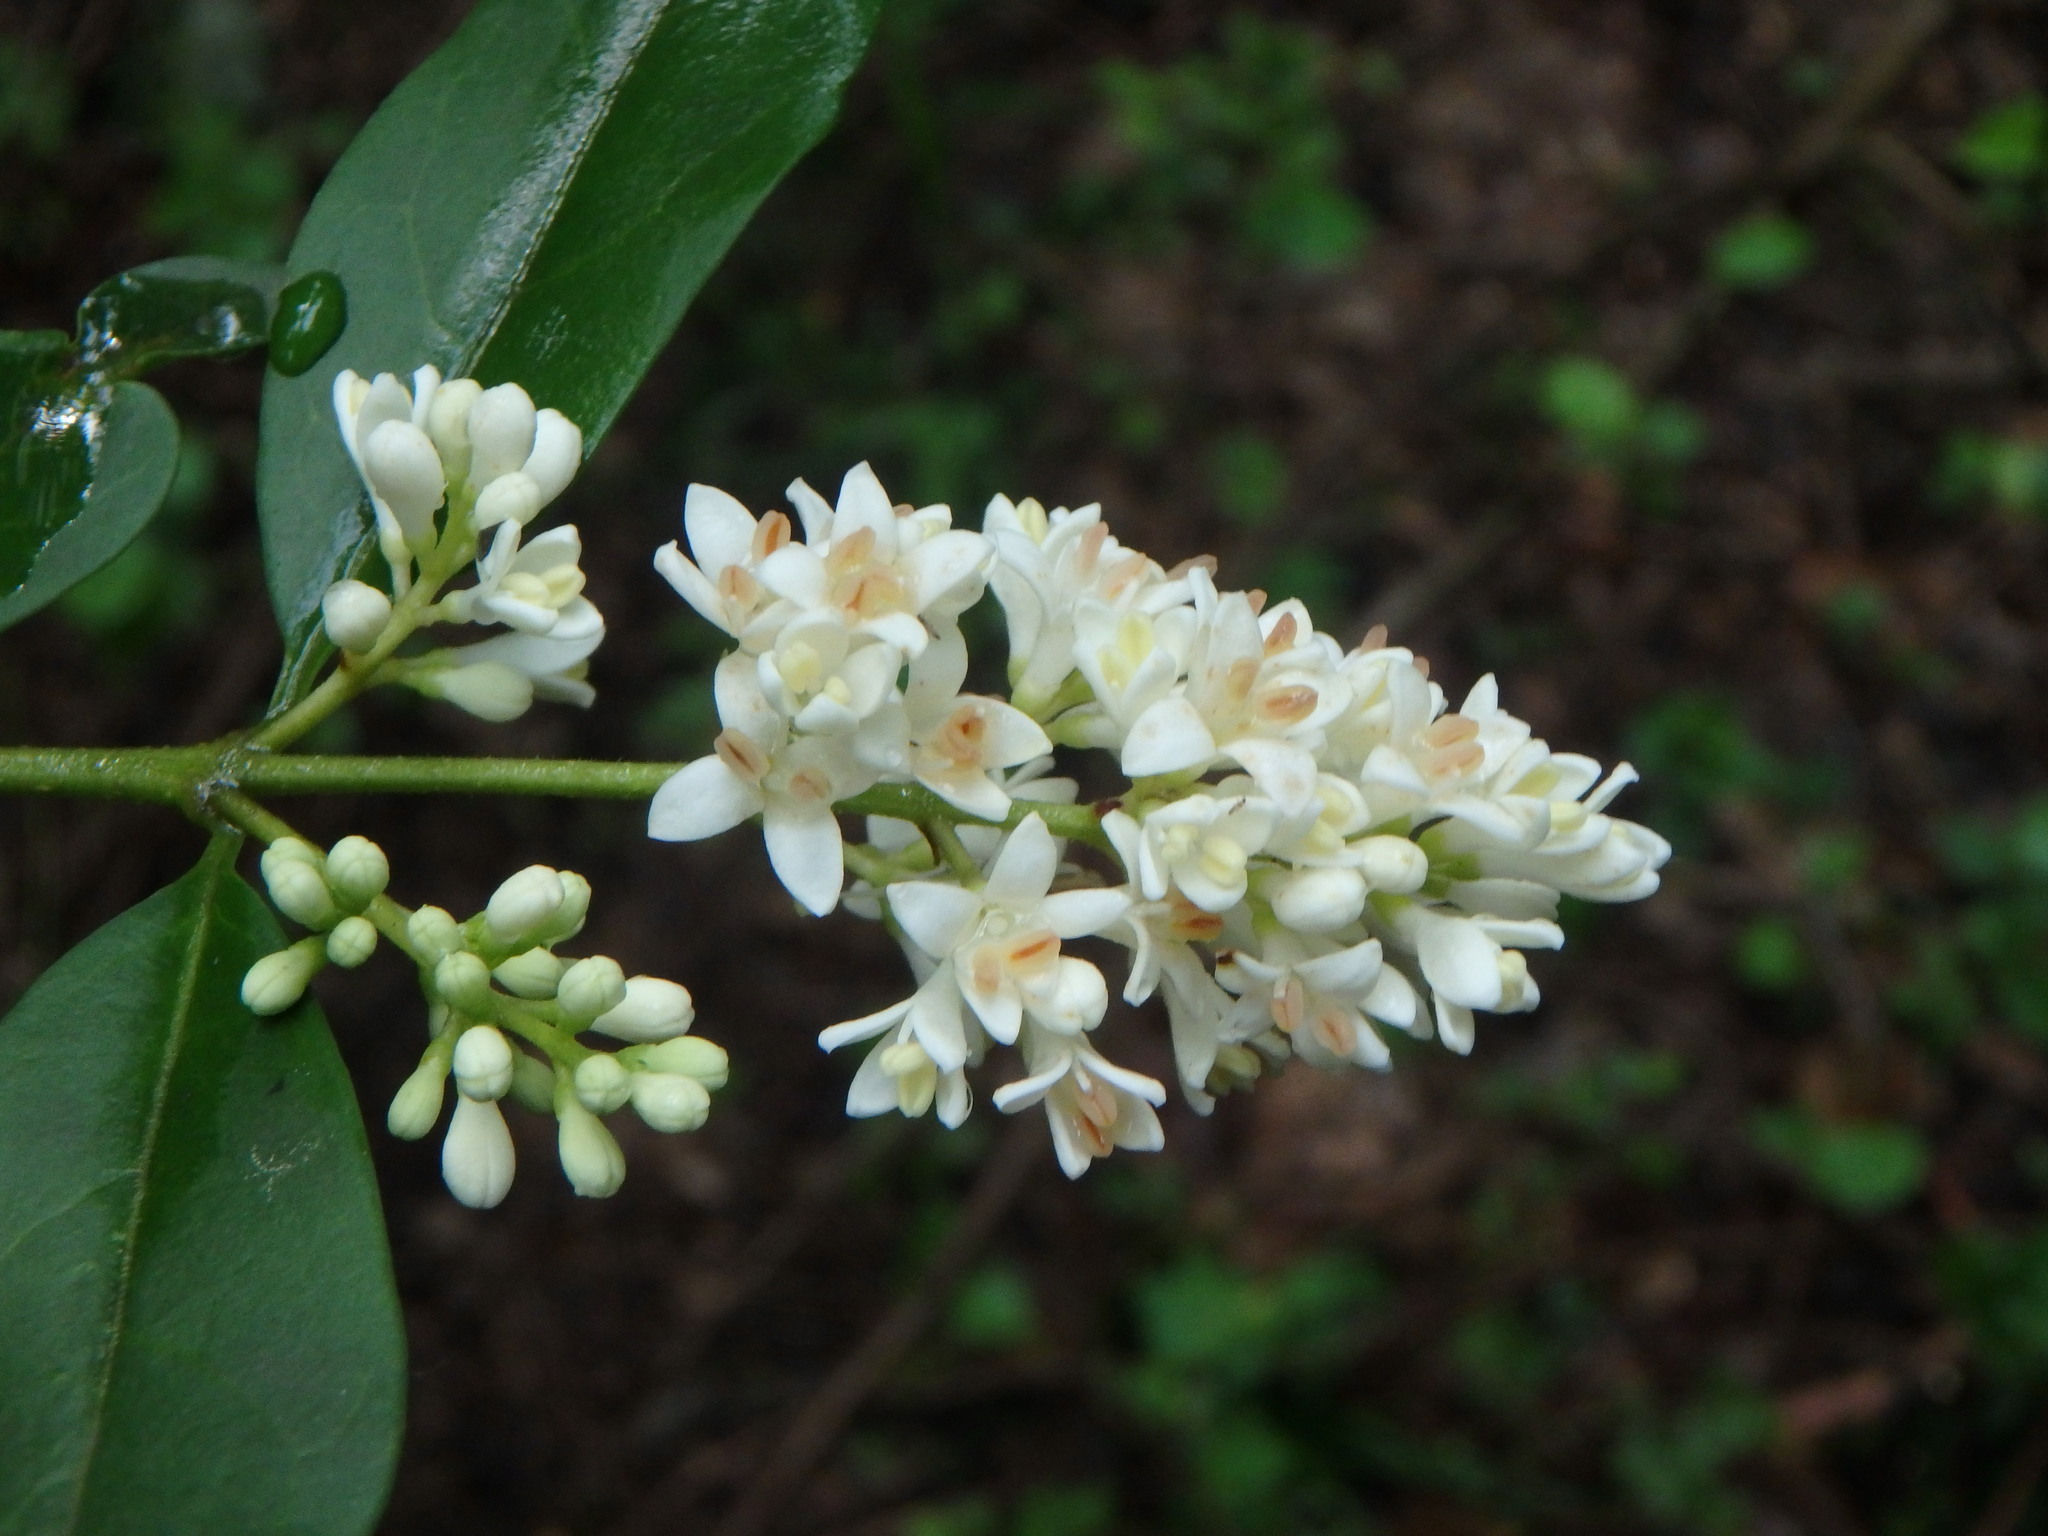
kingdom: Plantae
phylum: Tracheophyta
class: Magnoliopsida
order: Lamiales
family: Oleaceae
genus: Ligustrum
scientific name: Ligustrum vulgare
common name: Wild privet
